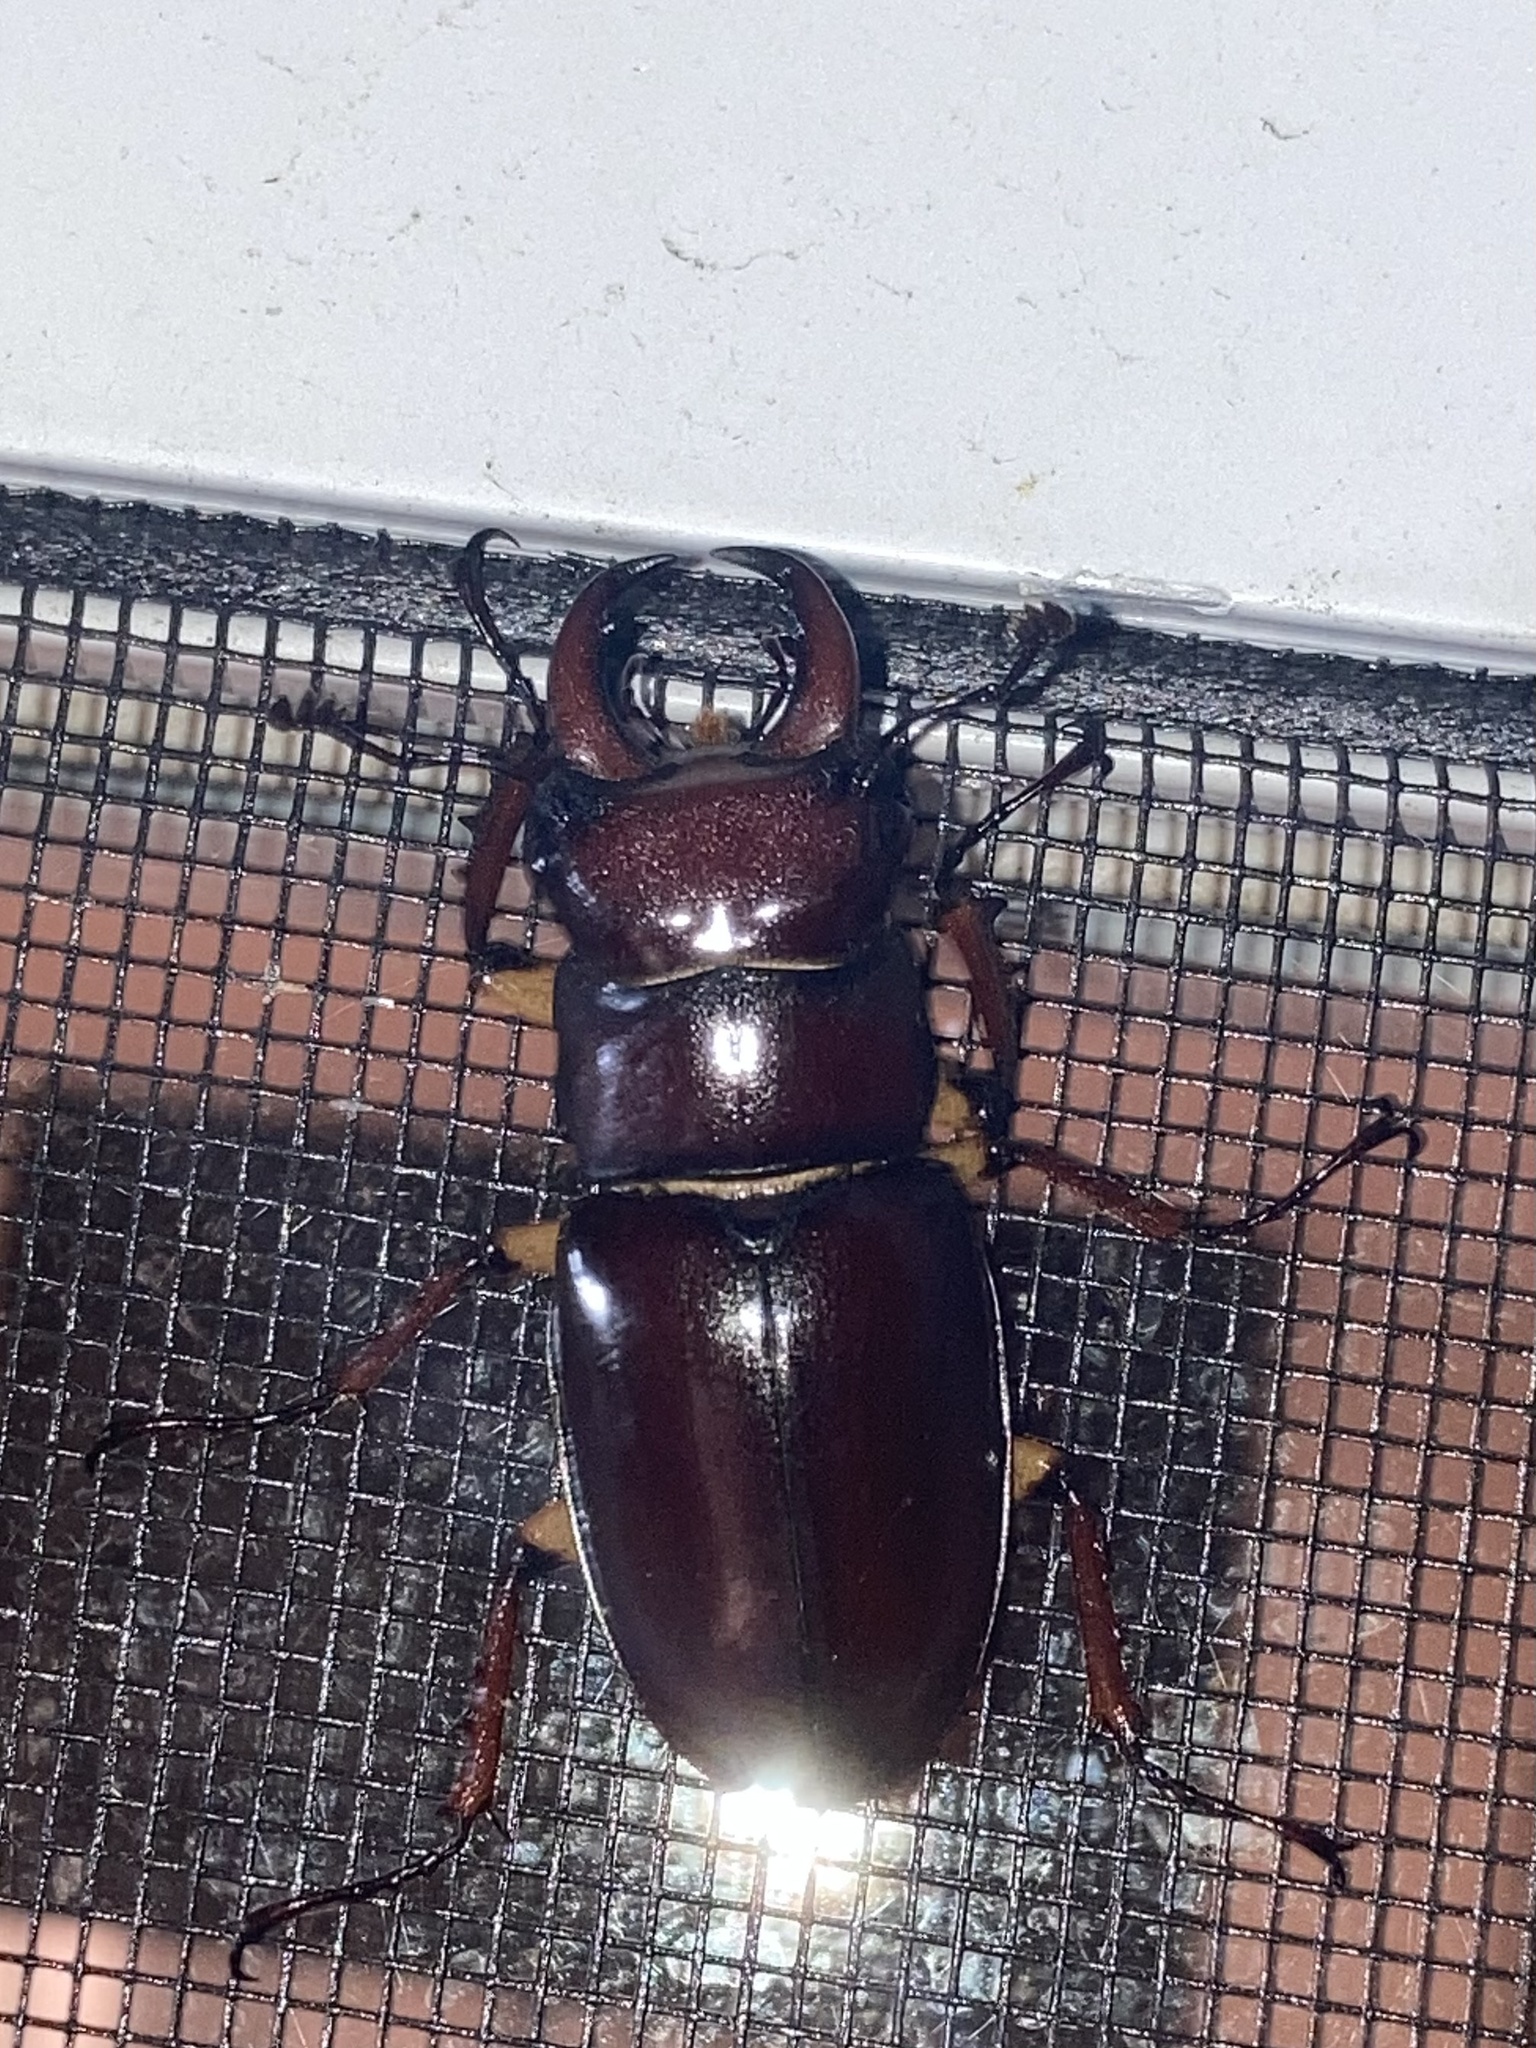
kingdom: Animalia
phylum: Arthropoda
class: Insecta
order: Coleoptera
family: Lucanidae
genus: Lucanus
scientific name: Lucanus capreolus
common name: Stag beetle
